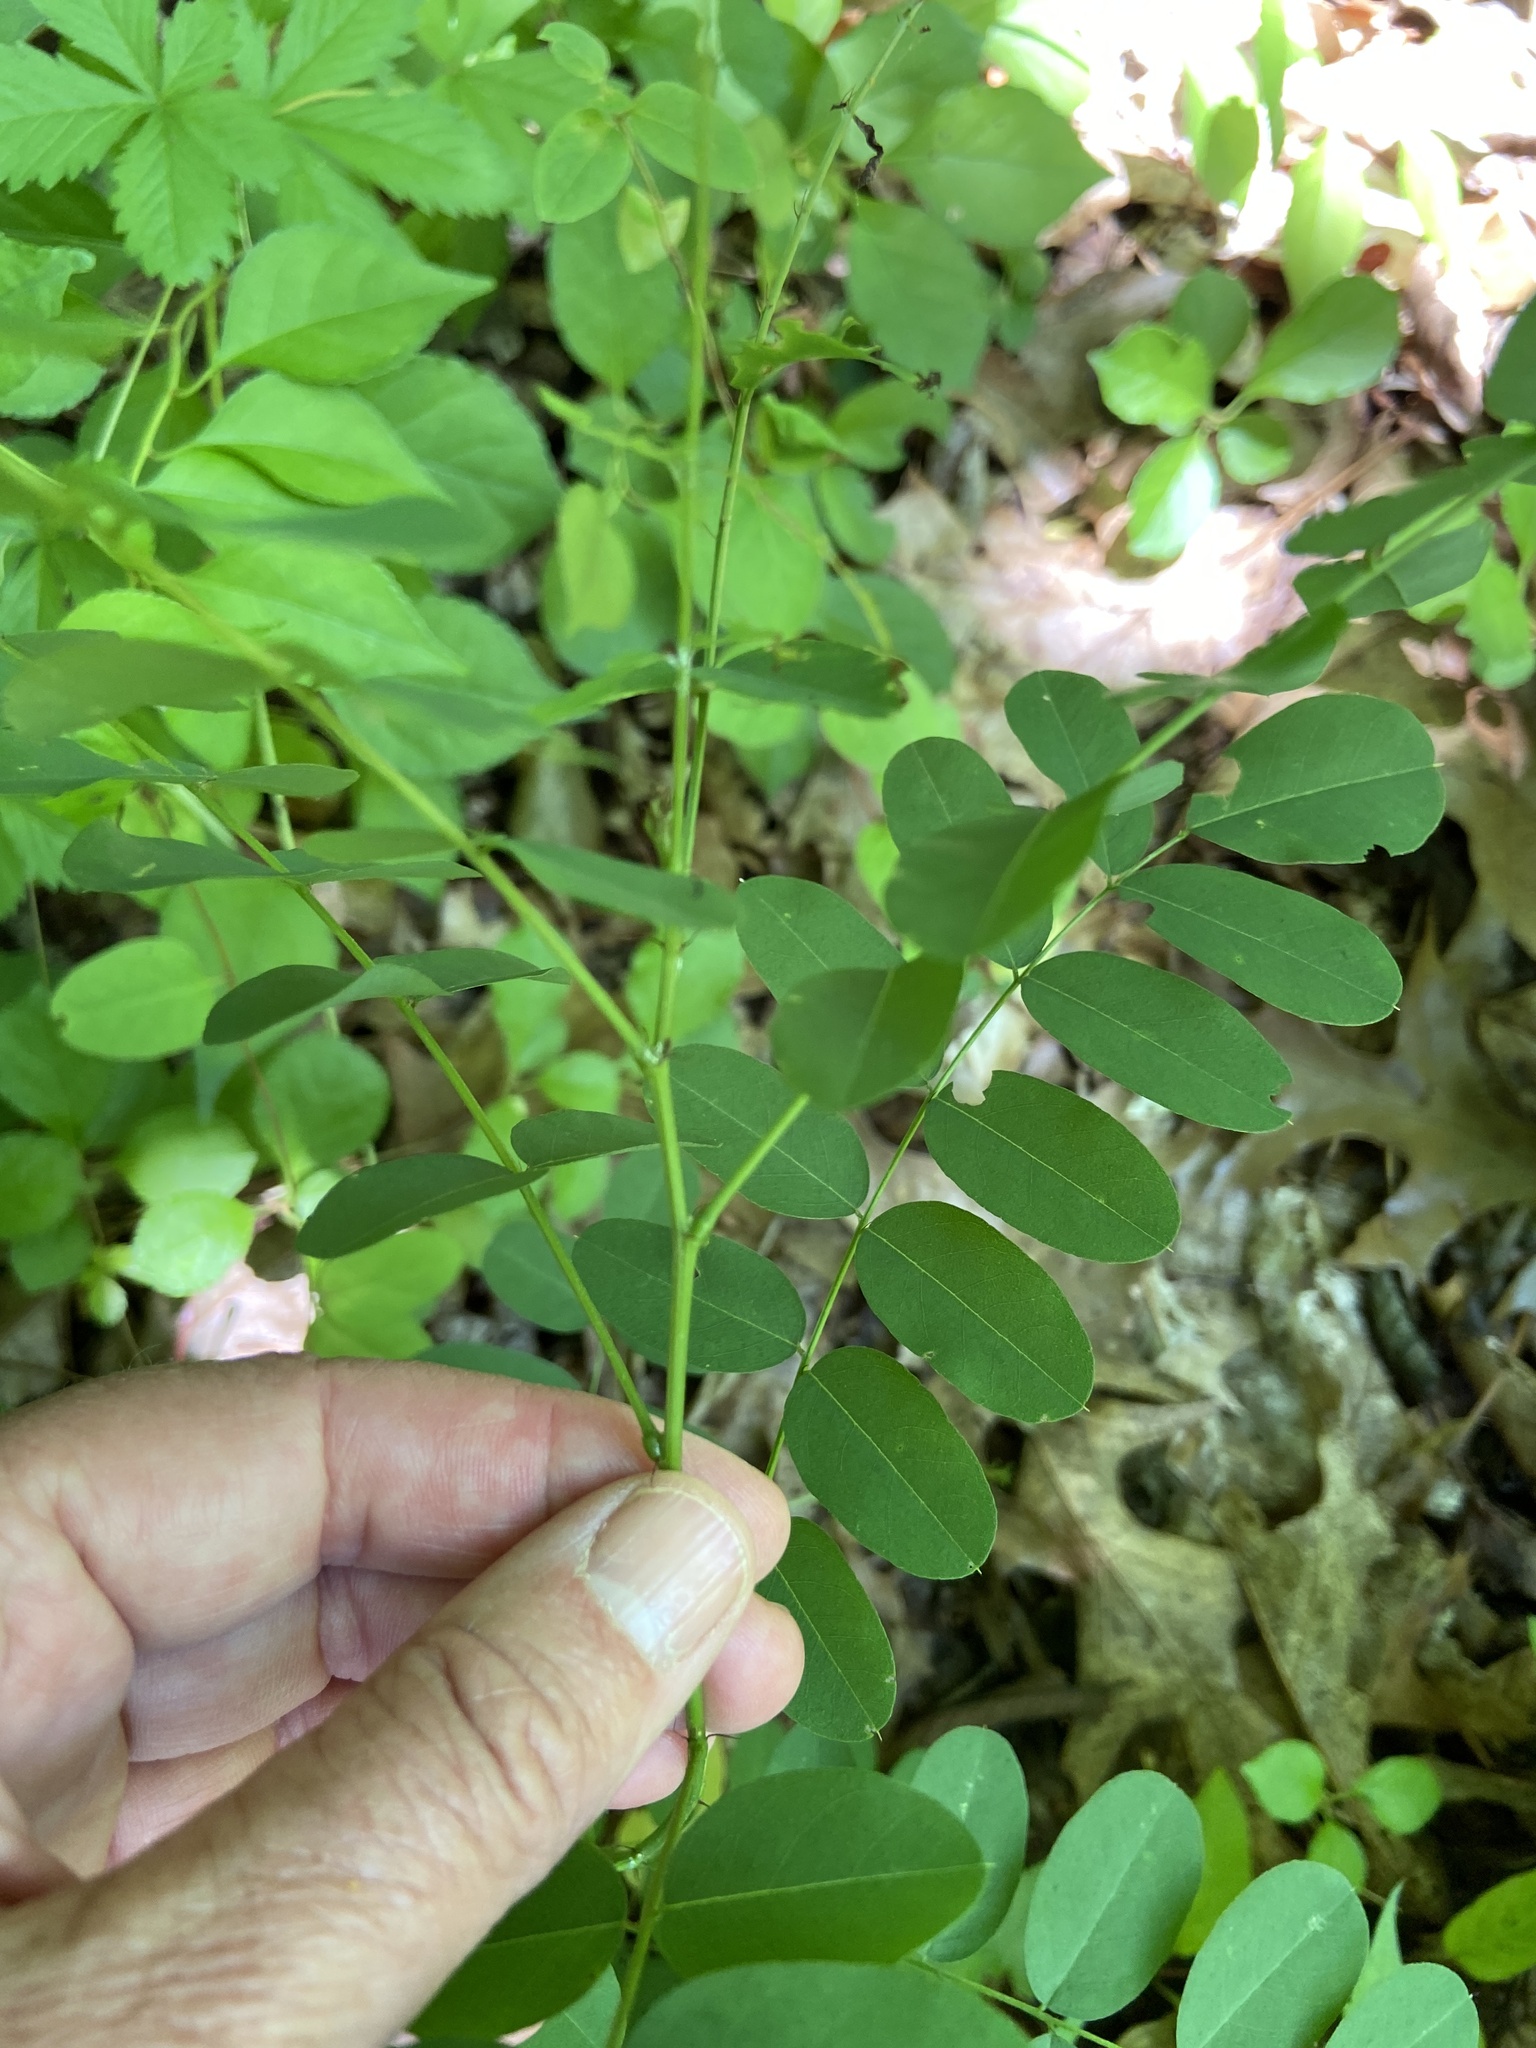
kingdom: Plantae
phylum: Tracheophyta
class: Magnoliopsida
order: Fabales
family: Fabaceae
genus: Robinia
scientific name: Robinia pseudoacacia
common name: Black locust
